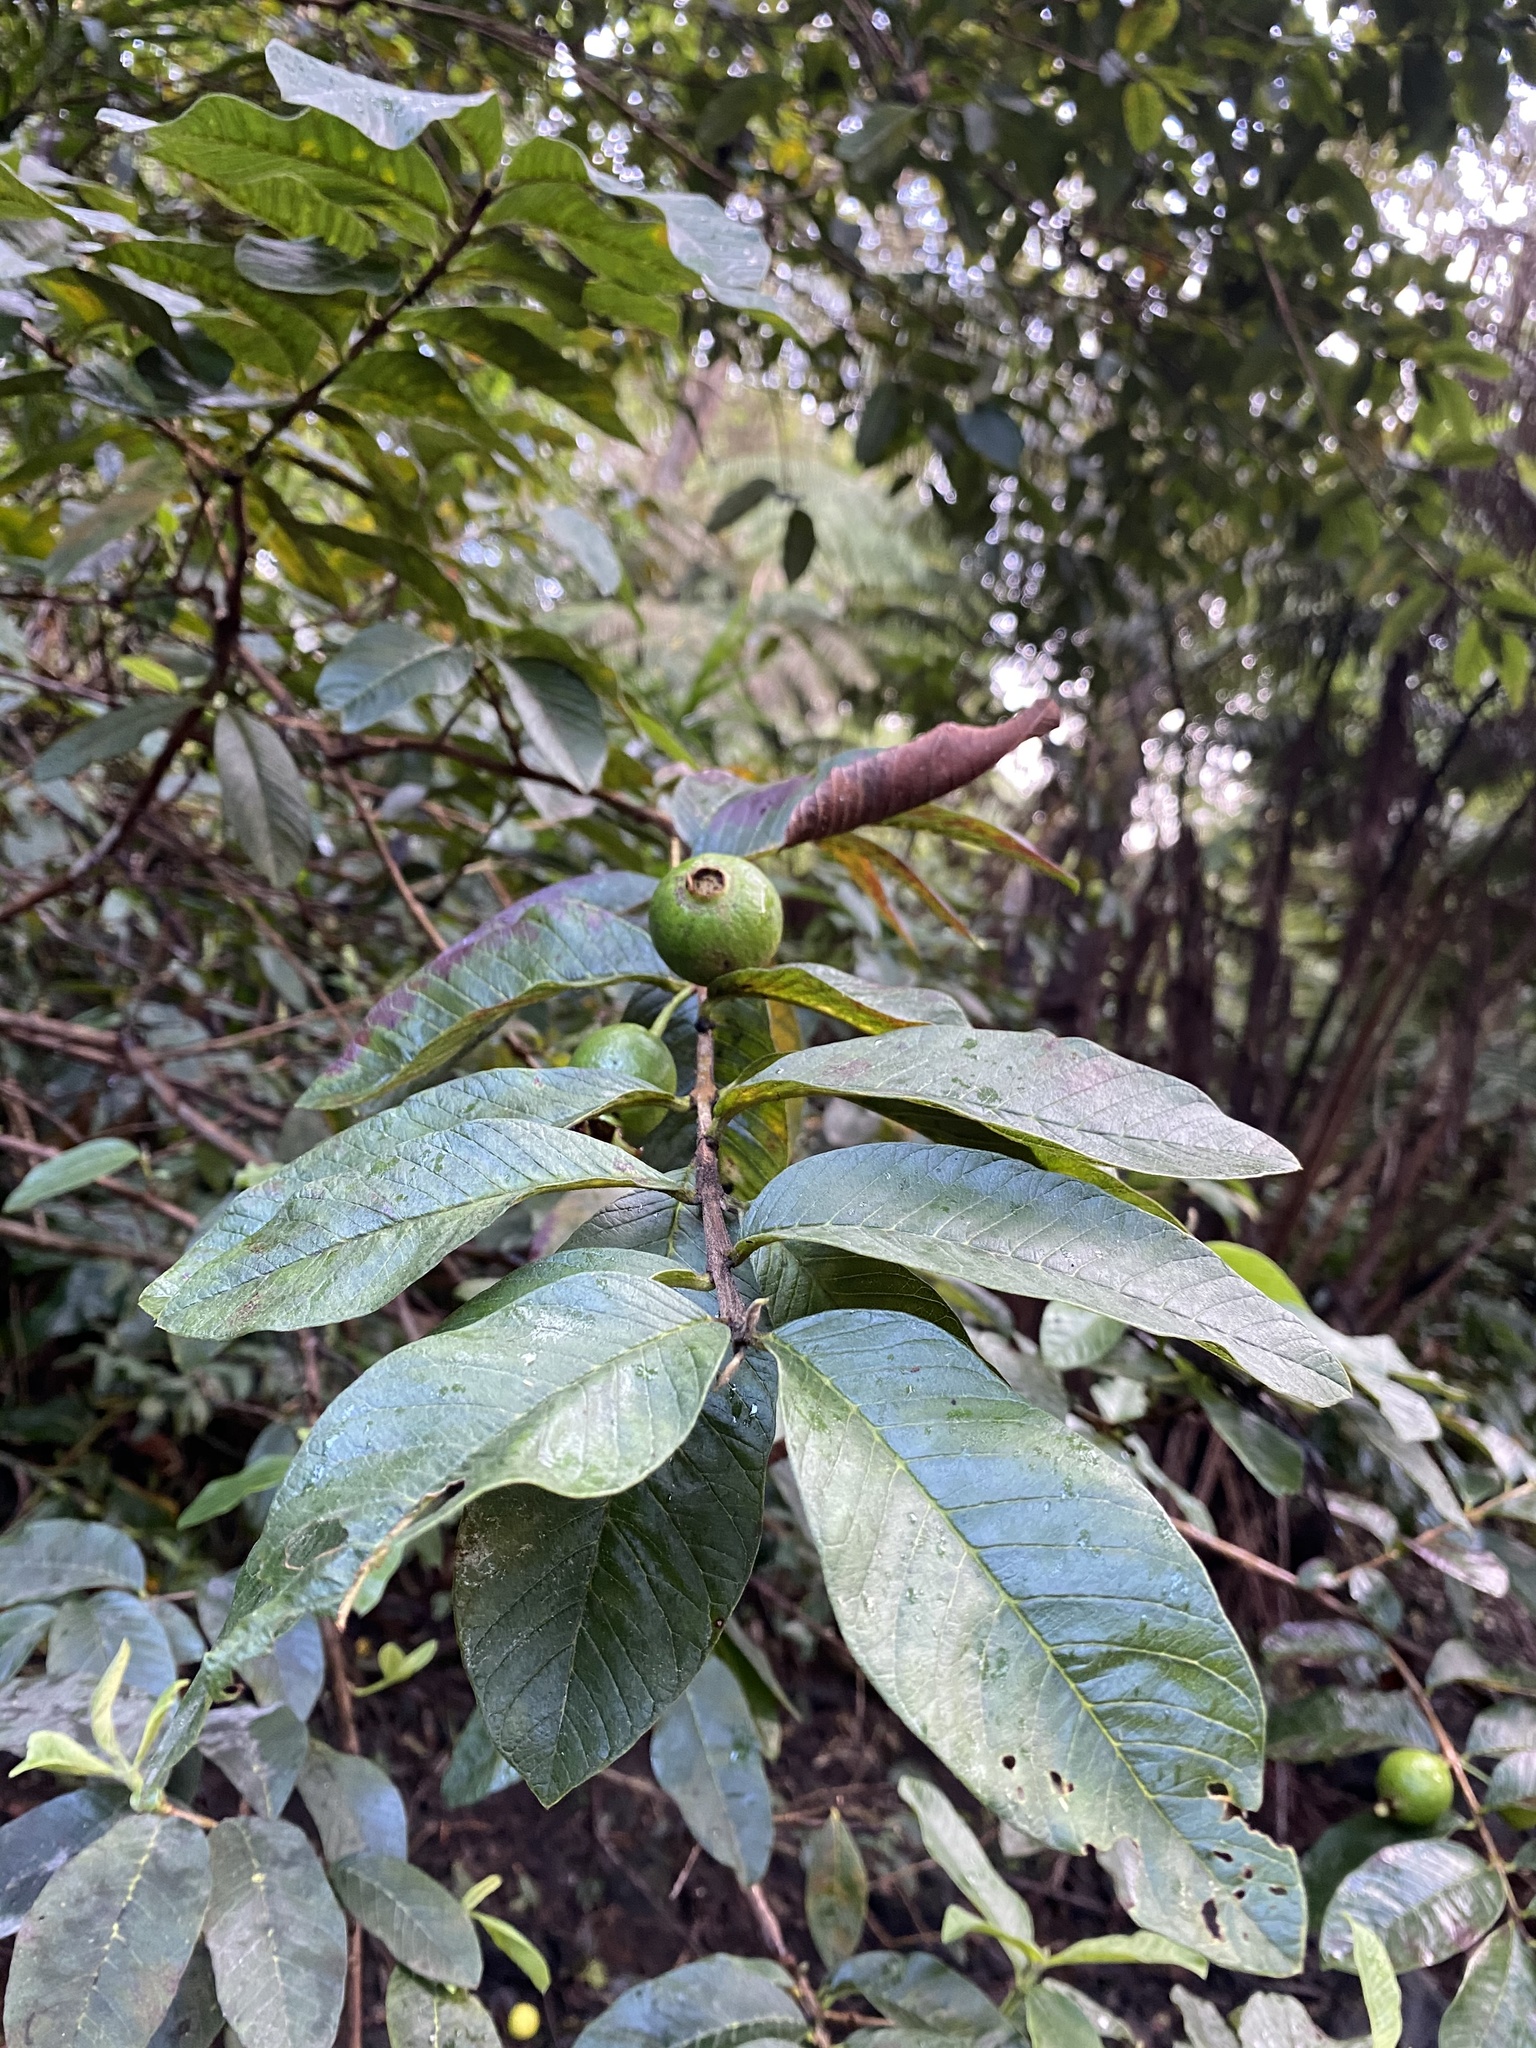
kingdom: Plantae
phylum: Tracheophyta
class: Magnoliopsida
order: Myrtales
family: Myrtaceae
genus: Psidium
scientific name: Psidium guajava
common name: Guava
